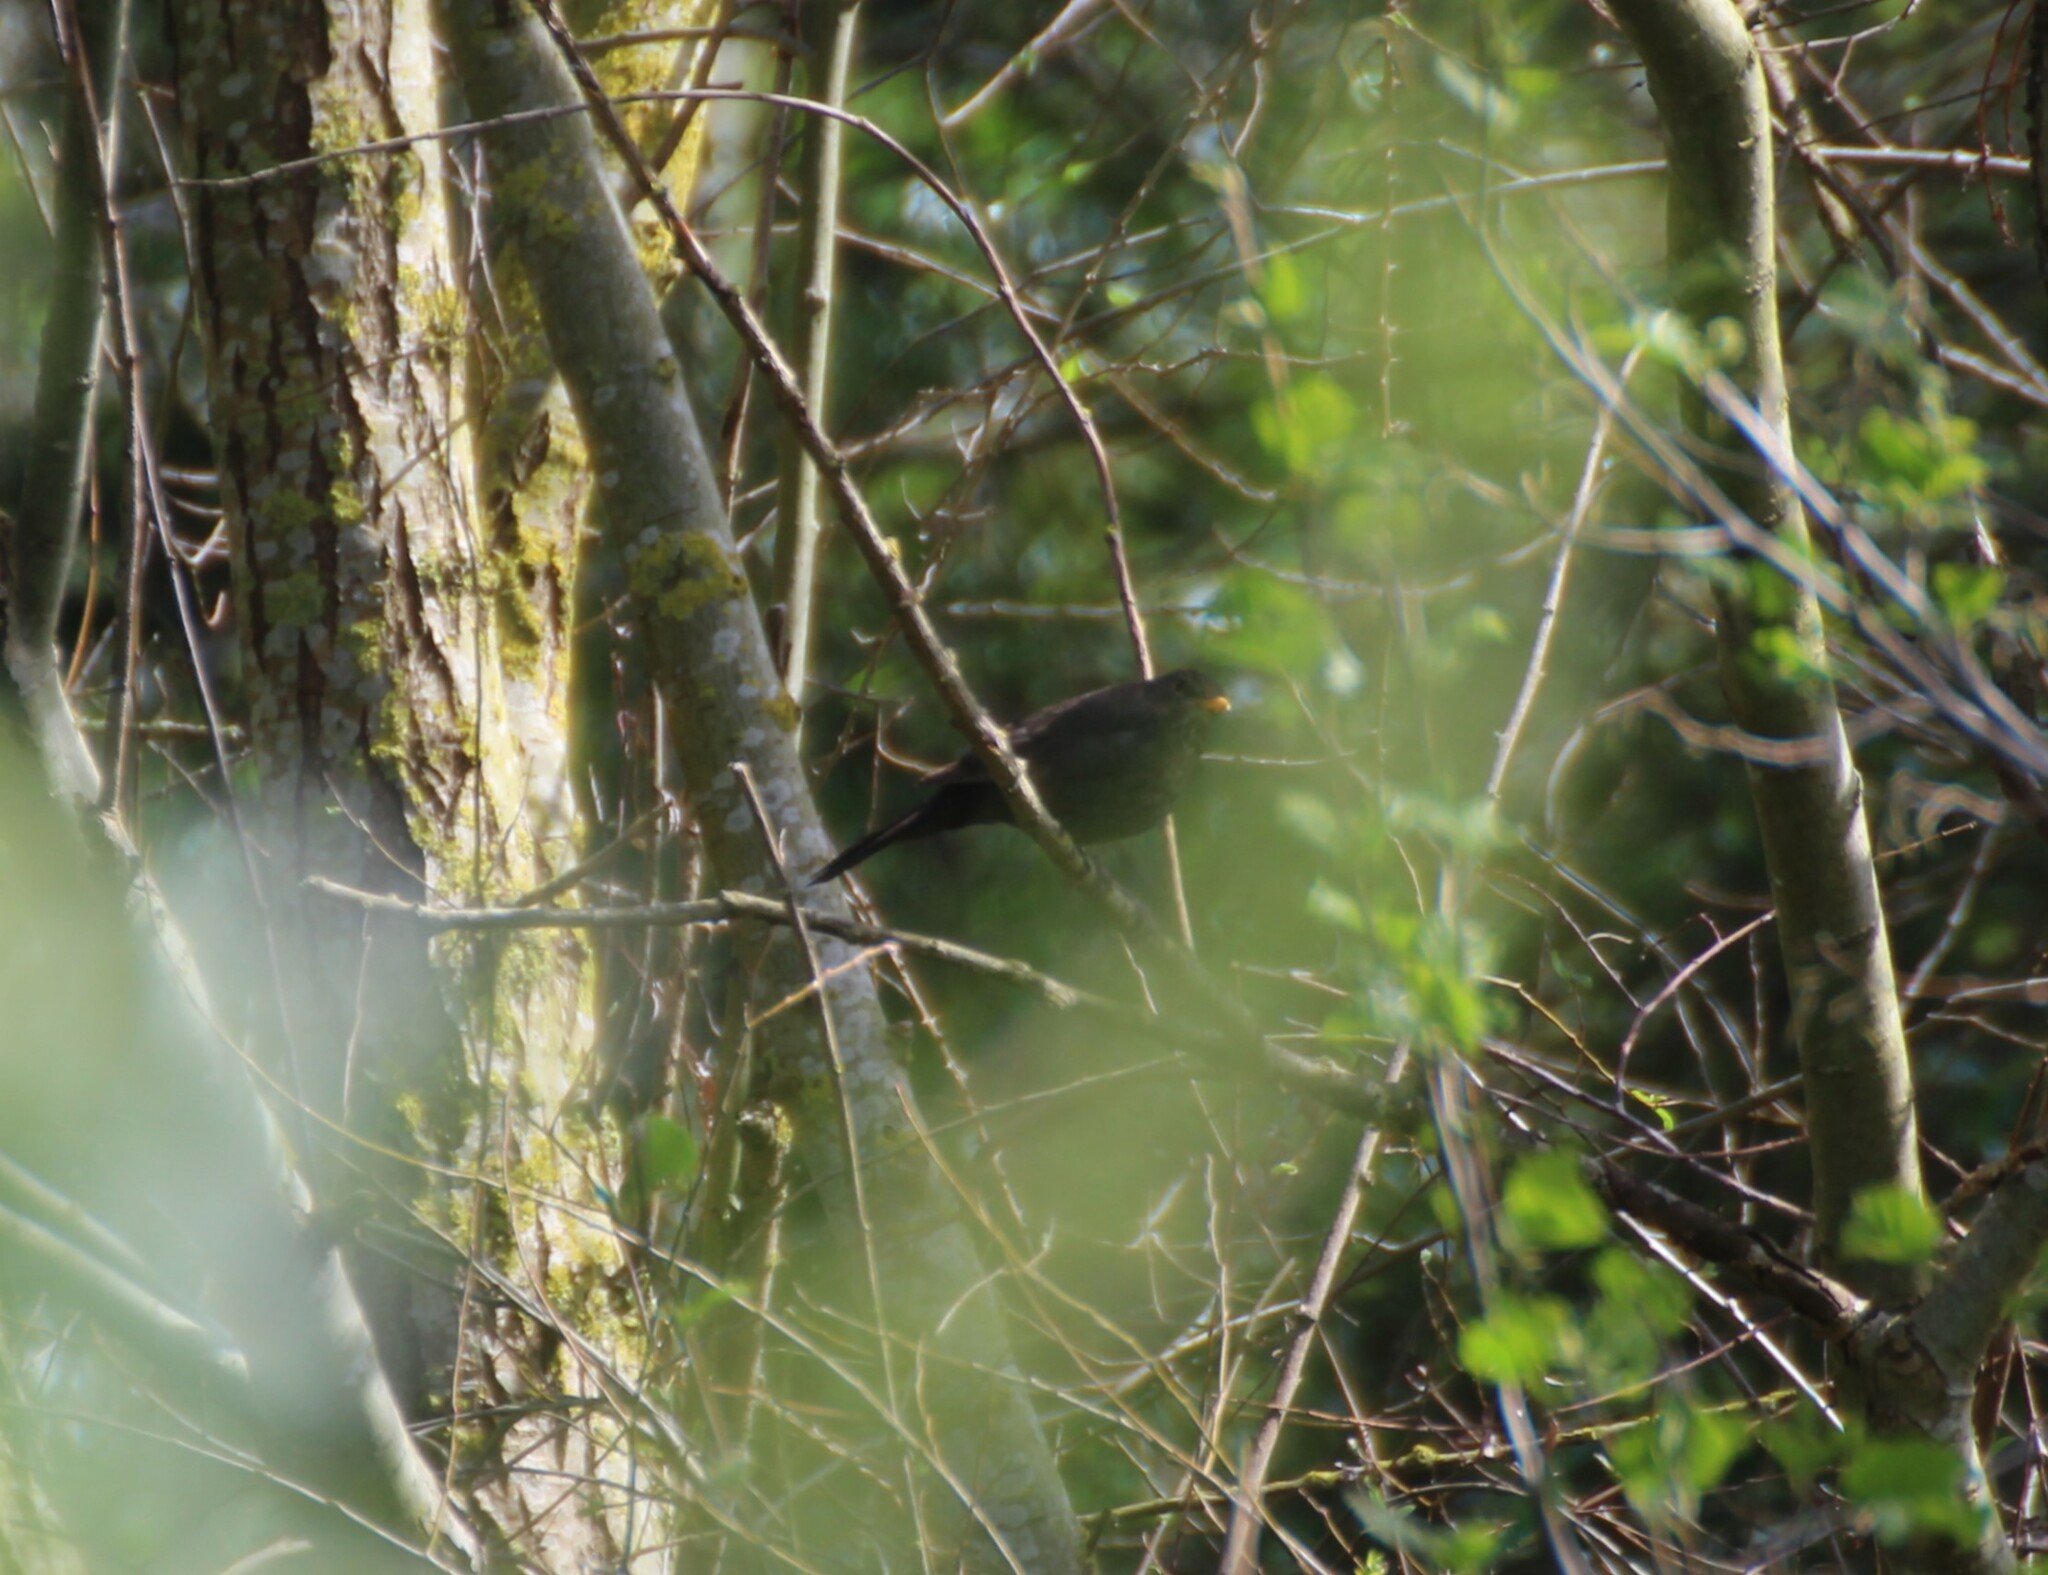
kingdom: Animalia
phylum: Chordata
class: Aves
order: Passeriformes
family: Turdidae
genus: Turdus
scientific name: Turdus merula
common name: Common blackbird
